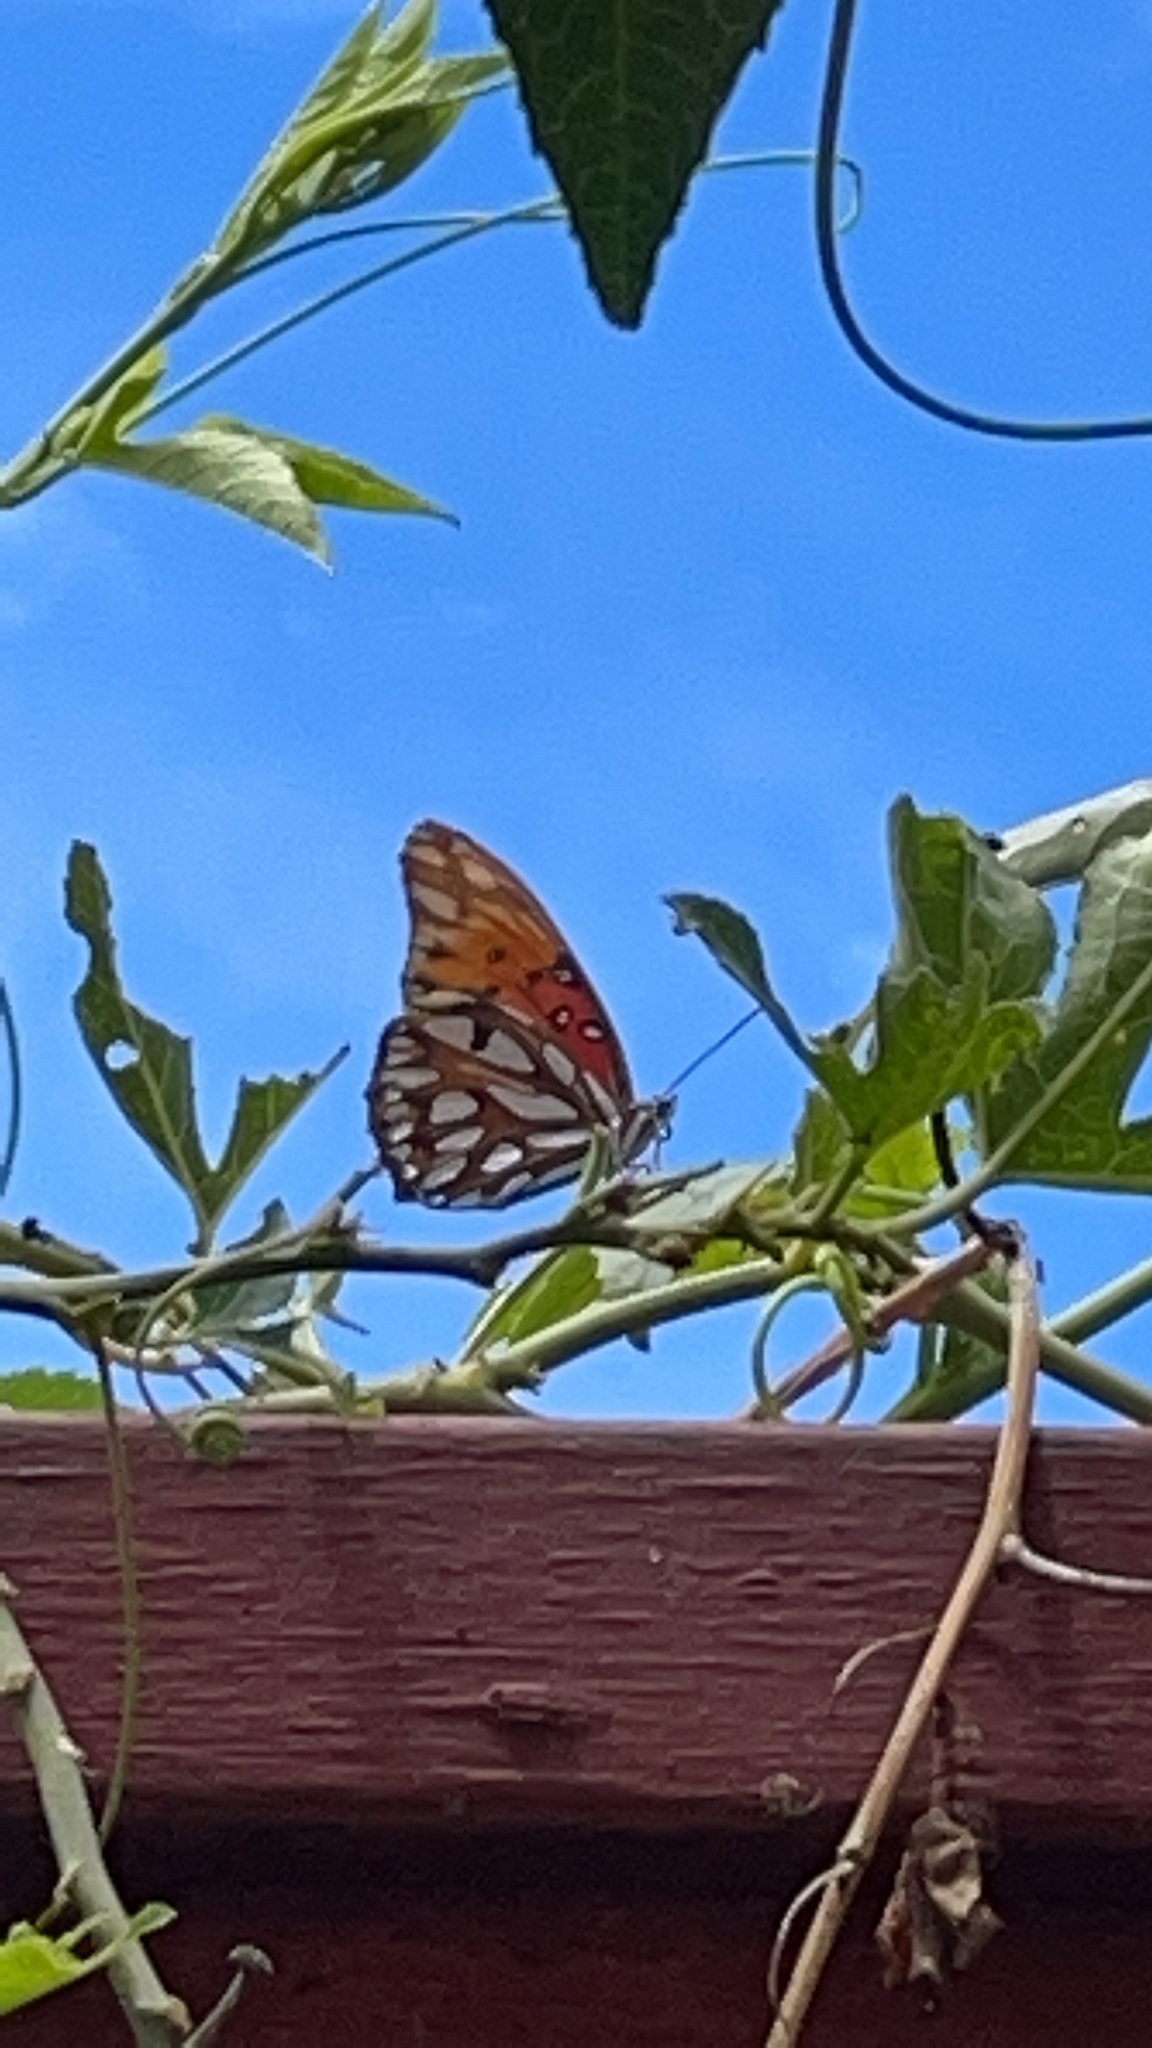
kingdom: Animalia
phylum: Arthropoda
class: Insecta
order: Lepidoptera
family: Nymphalidae
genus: Dione
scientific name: Dione vanillae
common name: Gulf fritillary
